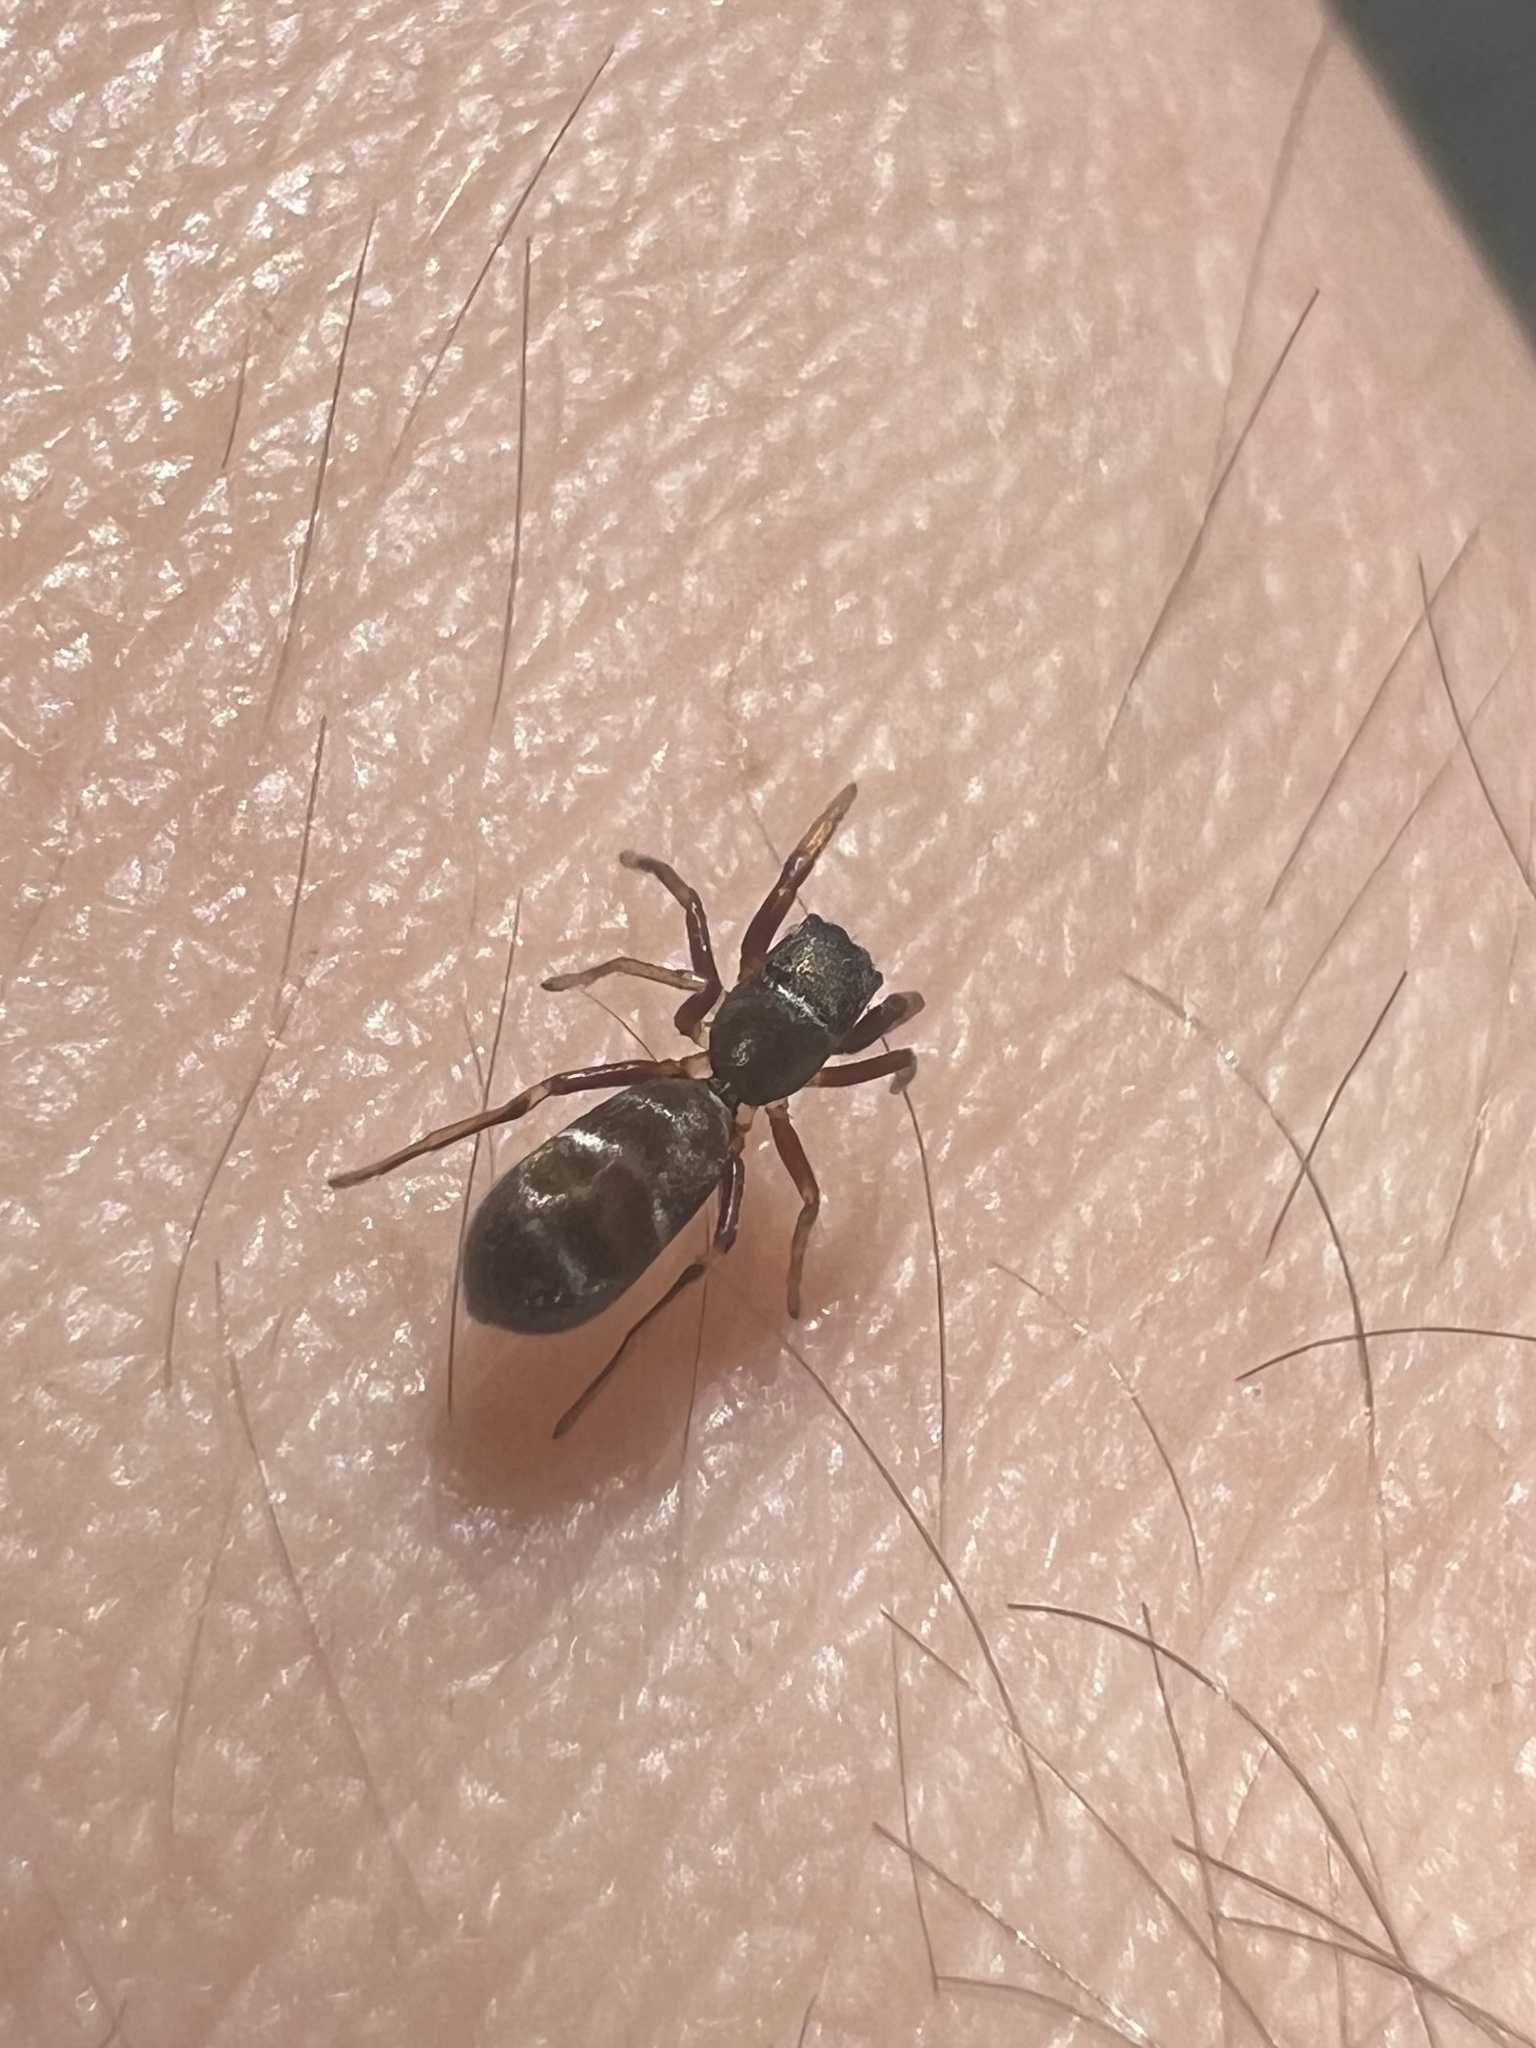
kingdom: Animalia
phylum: Arthropoda
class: Arachnida
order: Araneae
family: Salticidae
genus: Synageles
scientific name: Synageles venator
